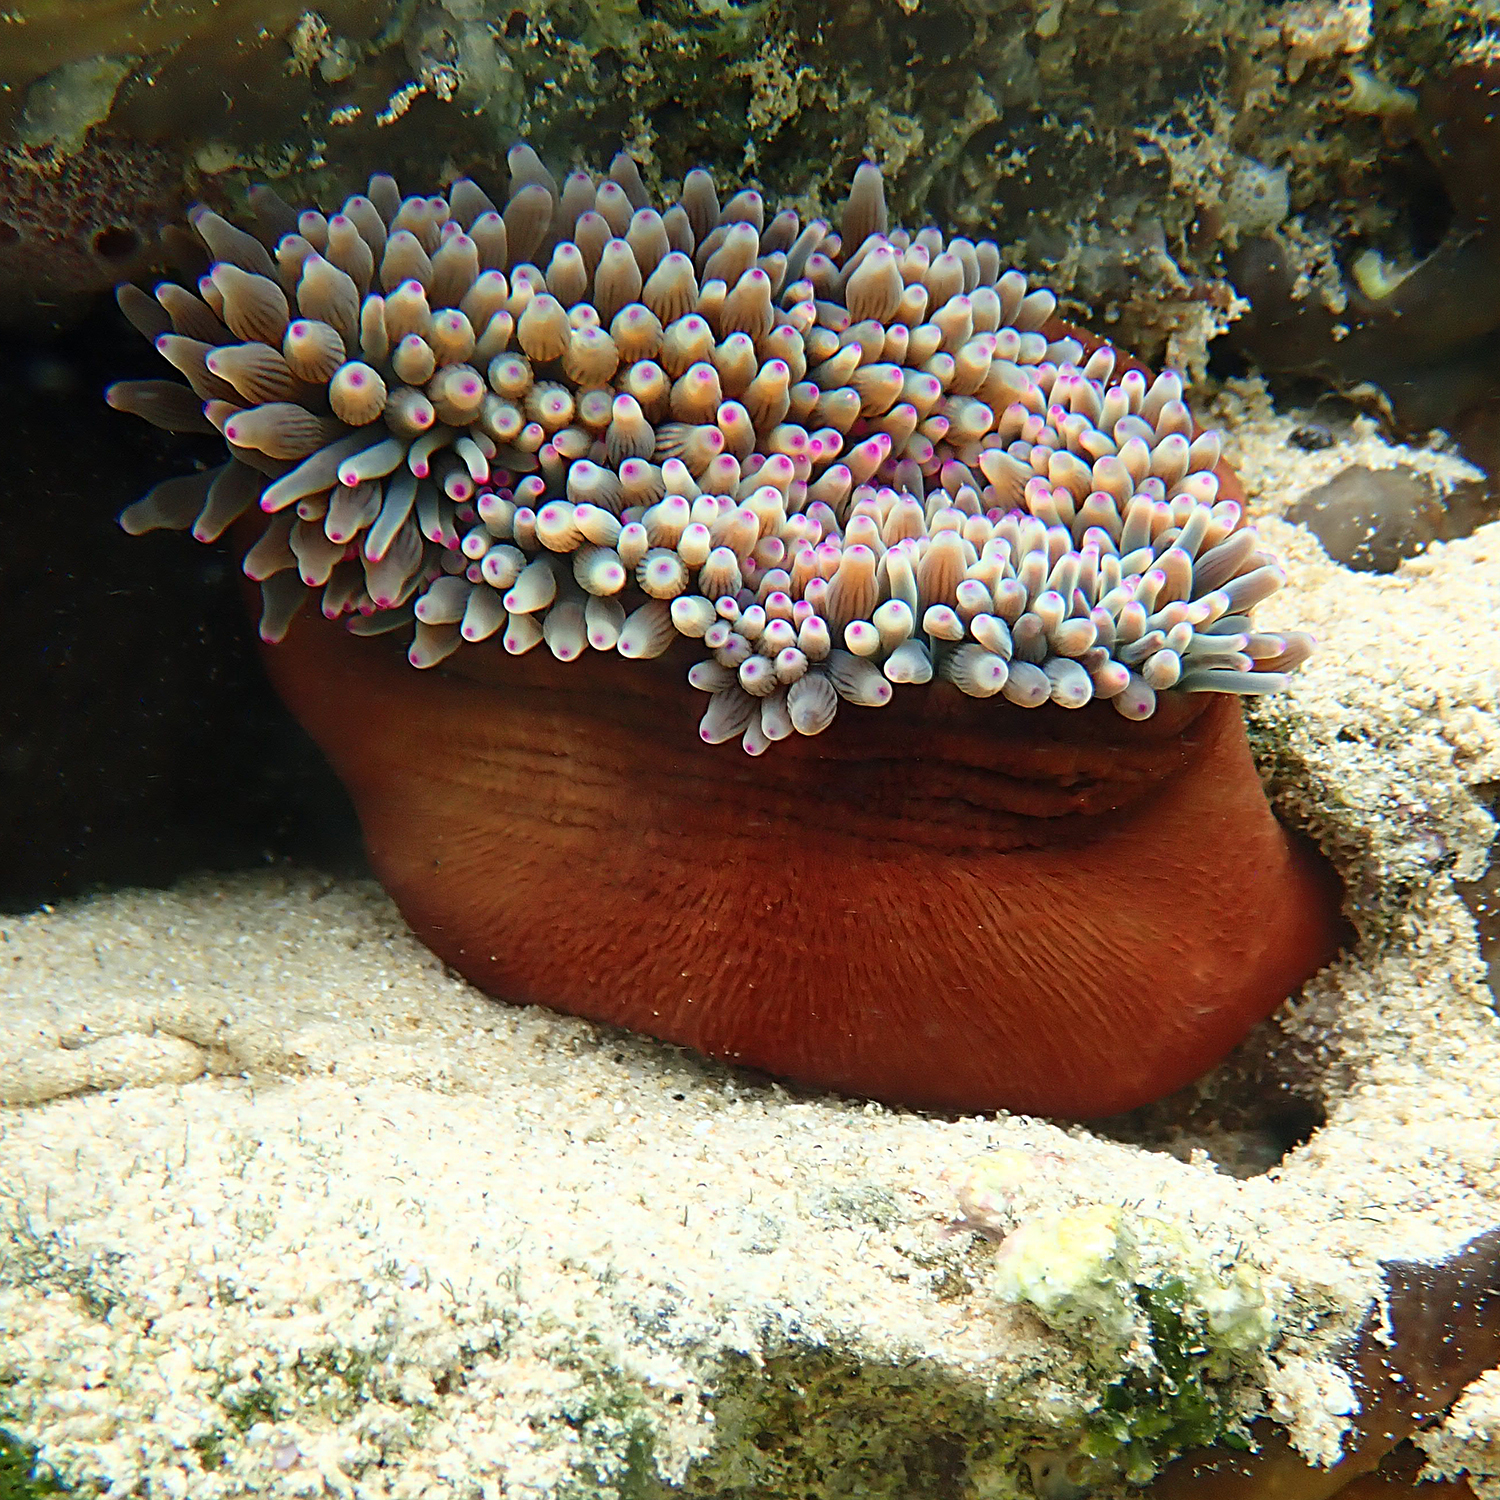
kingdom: Animalia
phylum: Cnidaria
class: Anthozoa
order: Actiniaria
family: Actiniidae
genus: Entacmaea
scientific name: Entacmaea quadricolor
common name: Bulb tentacle sea anemone
